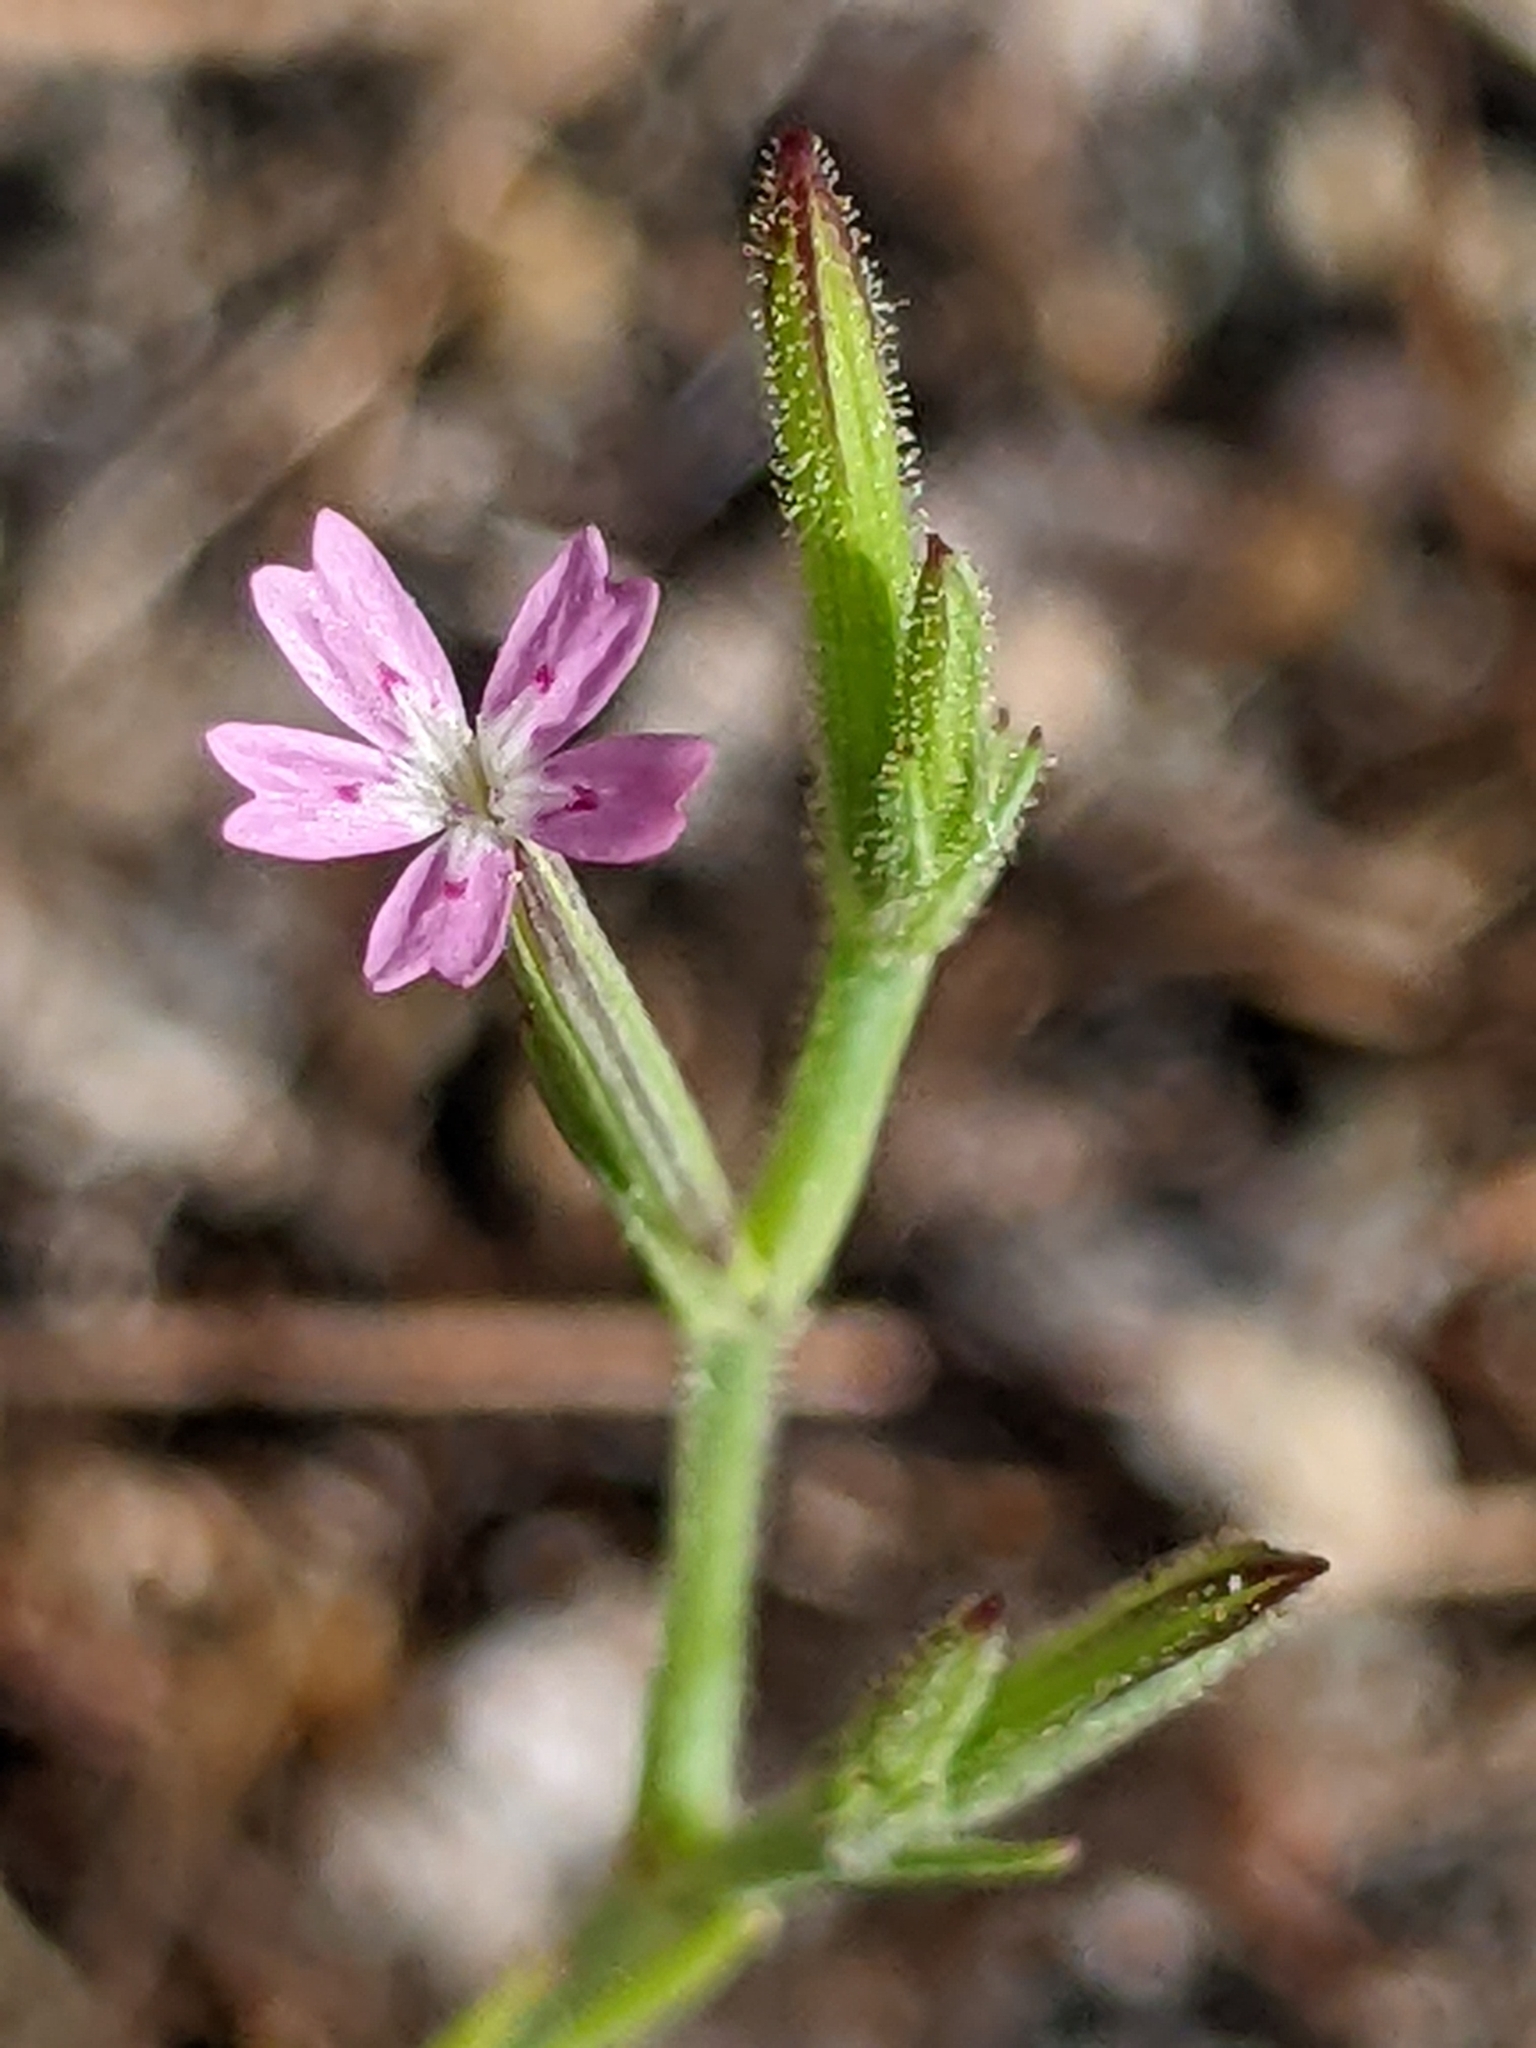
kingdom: Plantae
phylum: Tracheophyta
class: Magnoliopsida
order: Caryophyllales
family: Caryophyllaceae
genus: Dianthus
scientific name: Dianthus nudiflorus
